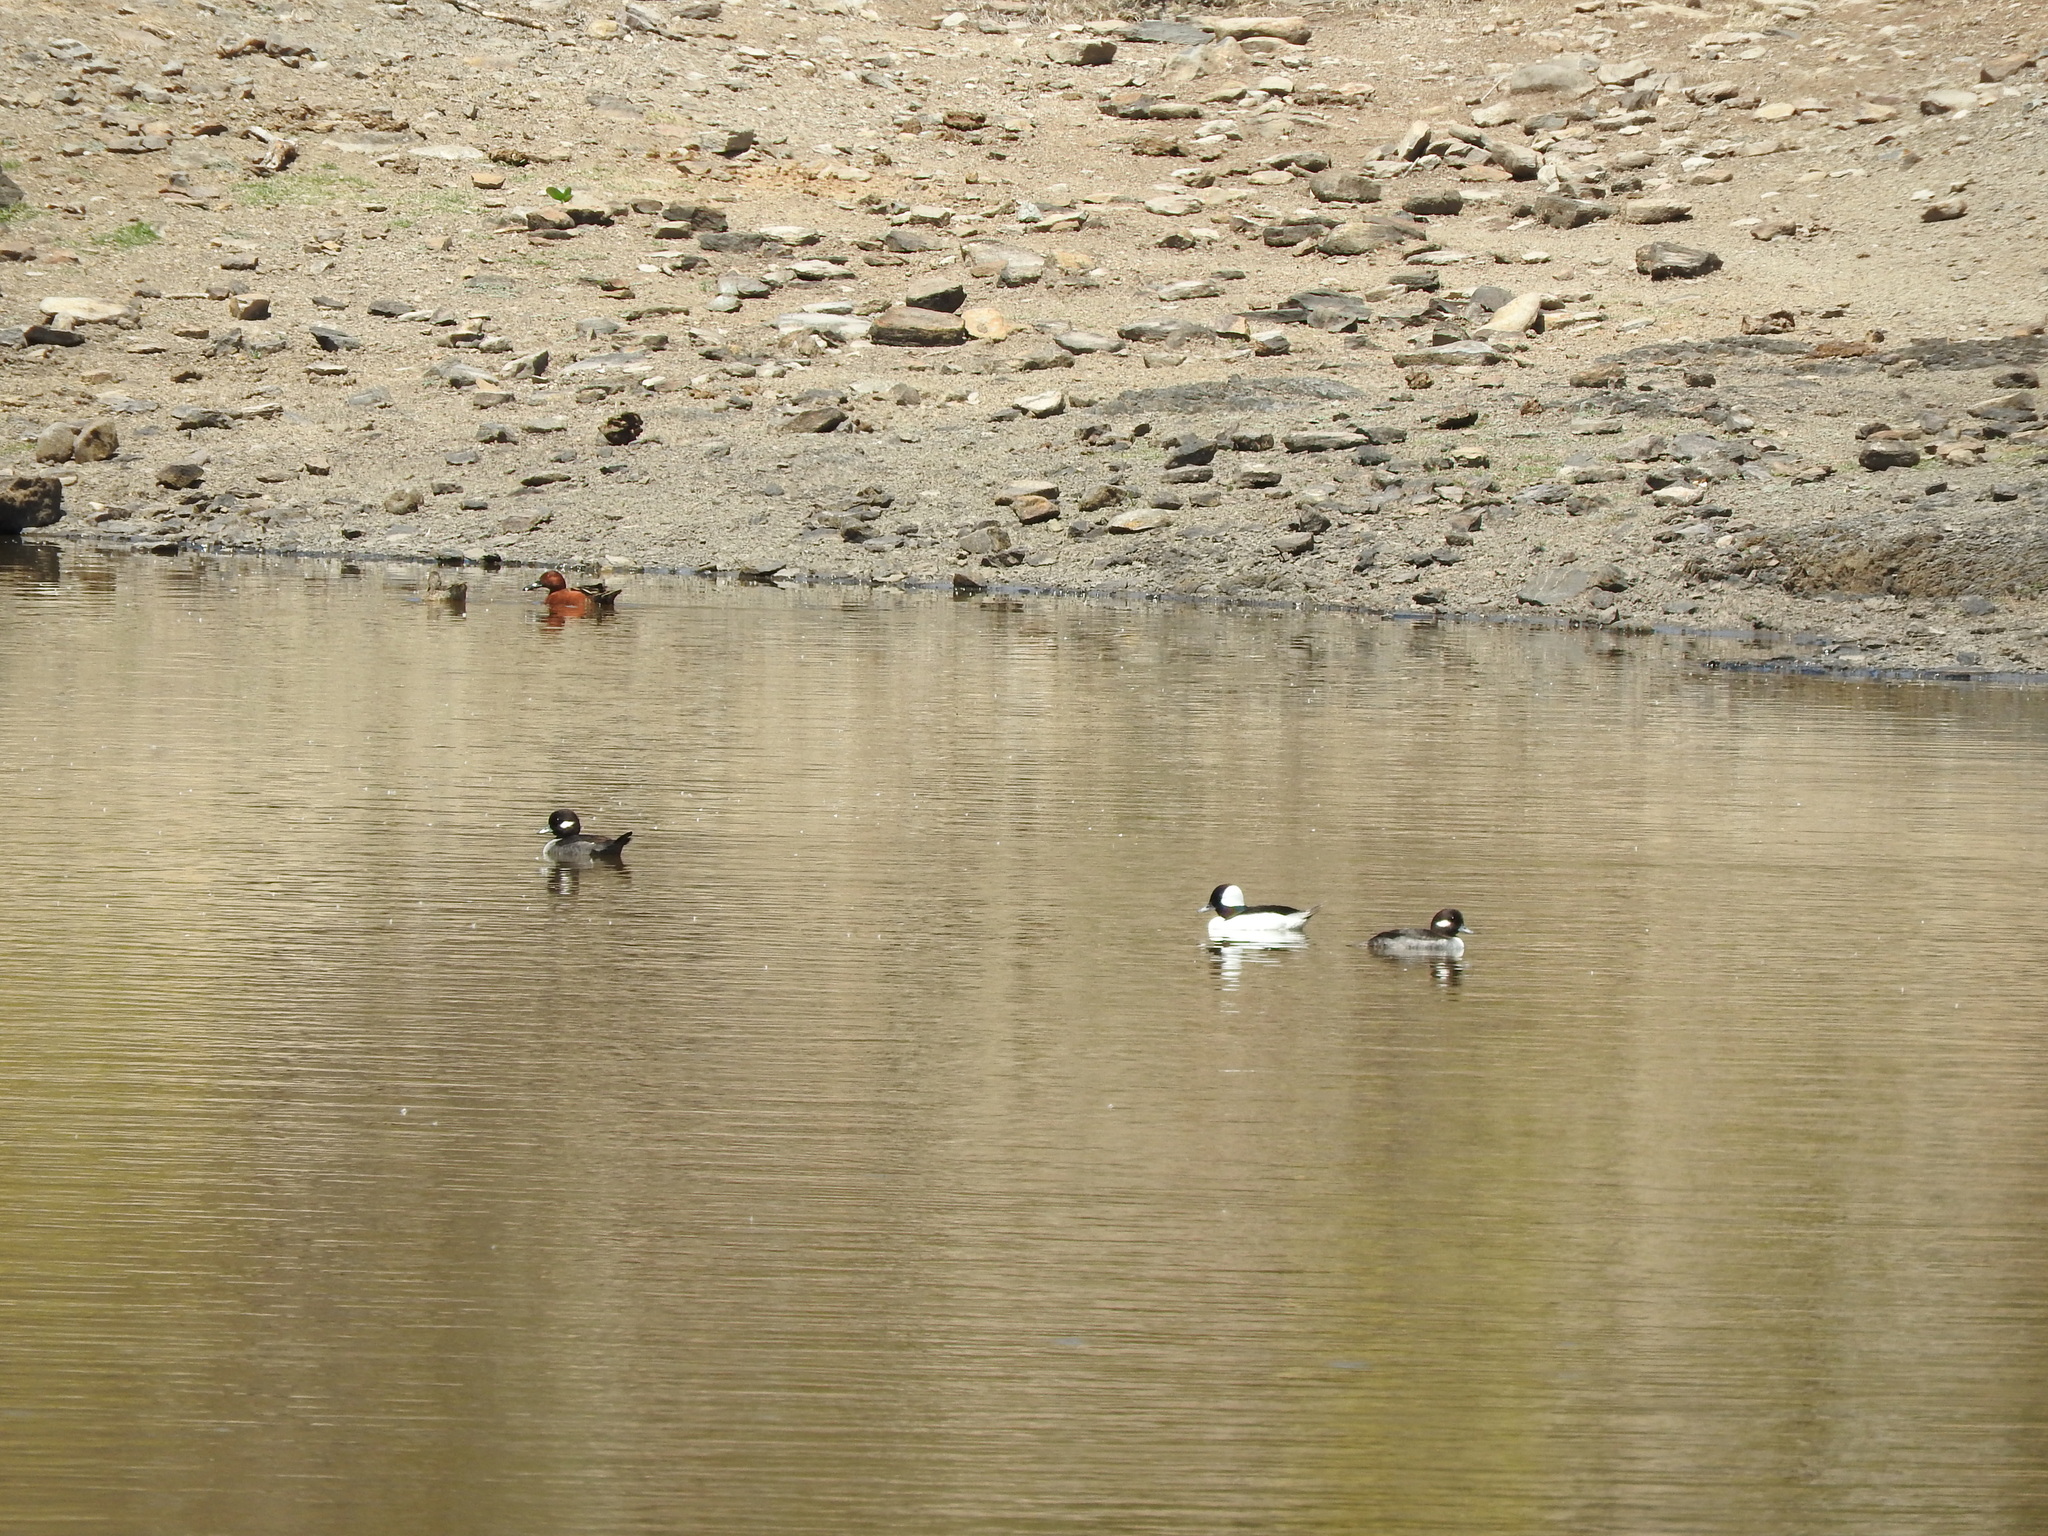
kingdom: Animalia
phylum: Chordata
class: Aves
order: Anseriformes
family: Anatidae
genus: Bucephala
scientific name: Bucephala albeola
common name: Bufflehead
